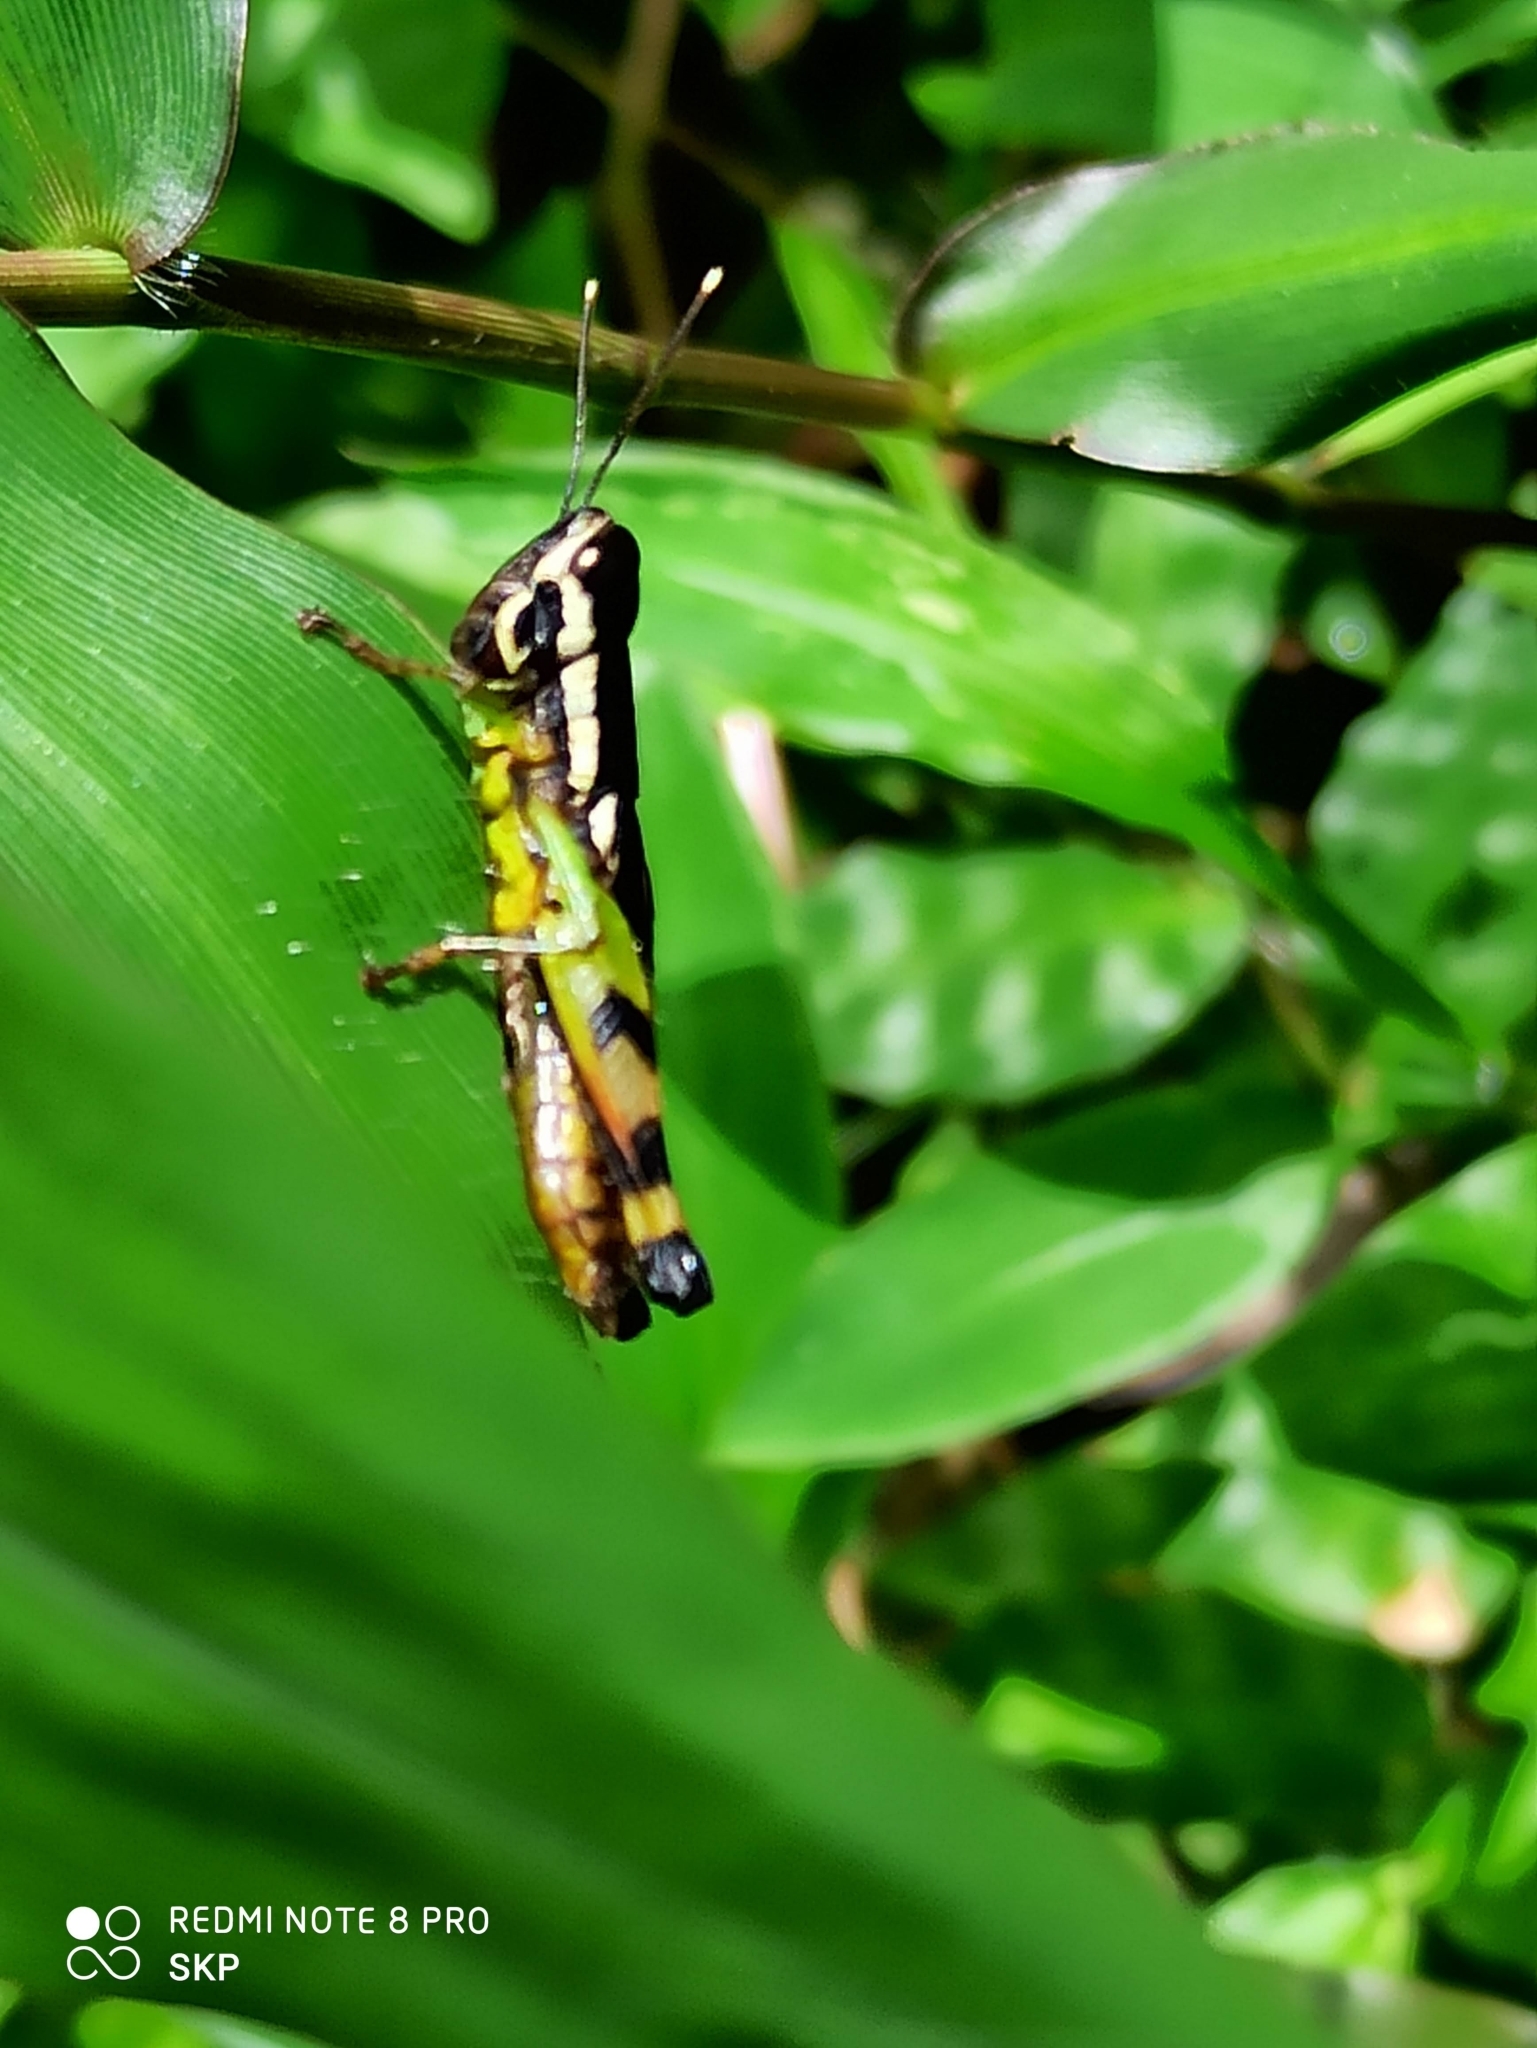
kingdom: Animalia
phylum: Arthropoda
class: Insecta
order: Orthoptera
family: Acrididae
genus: Chitaura
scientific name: Chitaura indica
